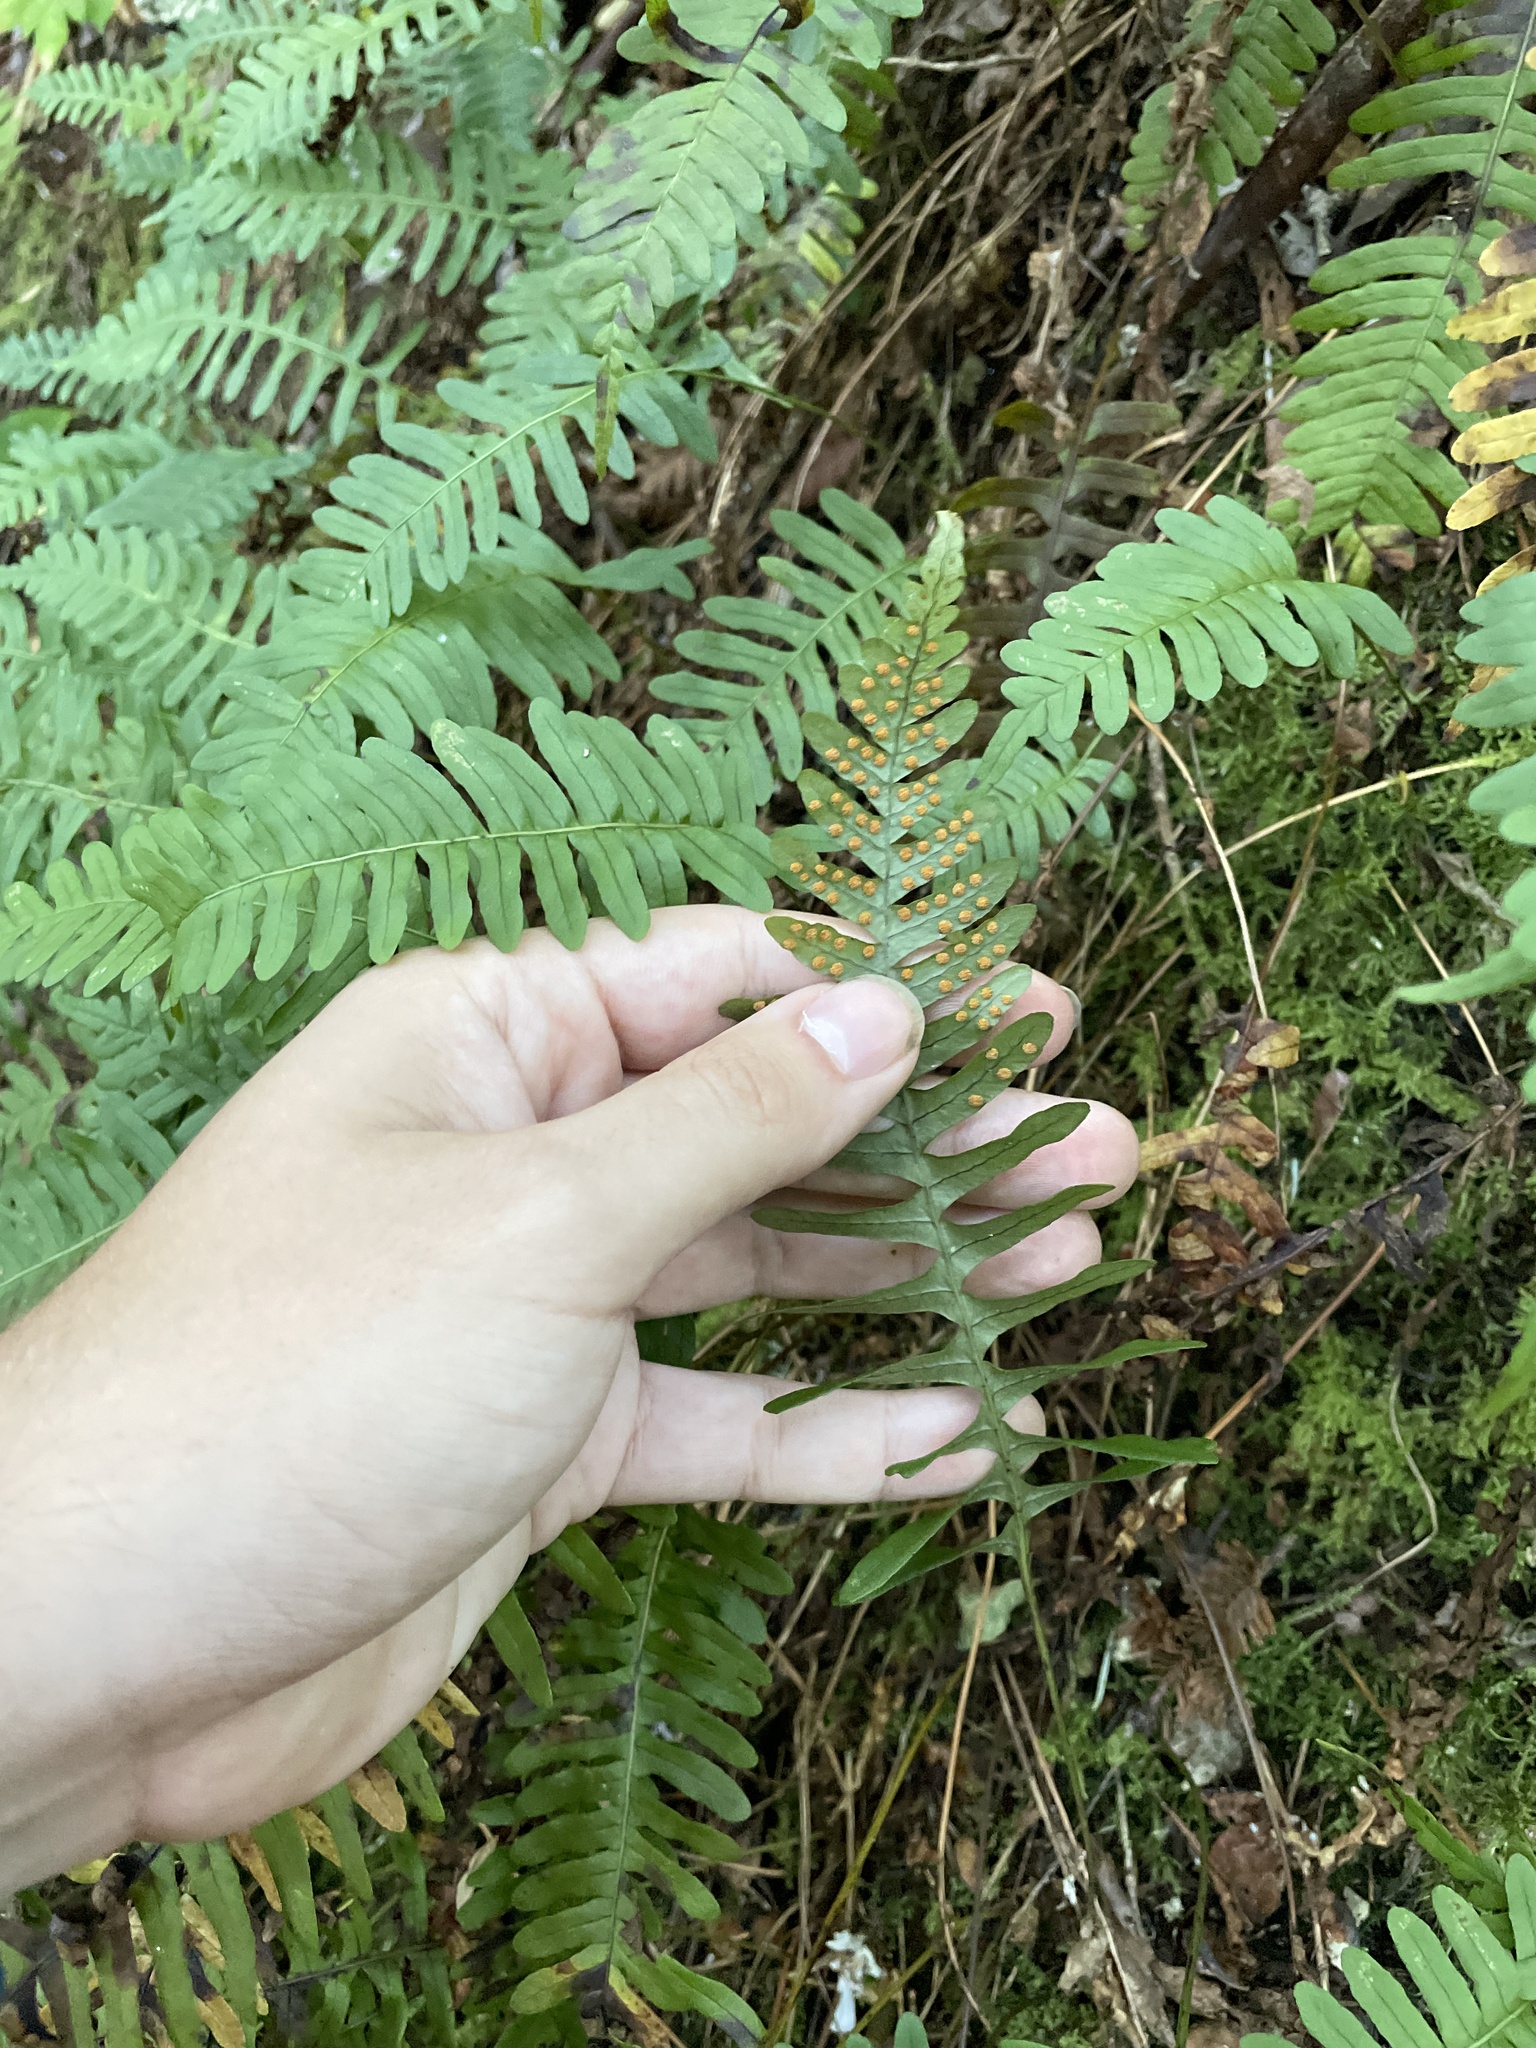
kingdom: Plantae
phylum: Tracheophyta
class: Polypodiopsida
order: Polypodiales
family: Polypodiaceae
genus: Polypodium
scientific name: Polypodium virginianum
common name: American wall fern
